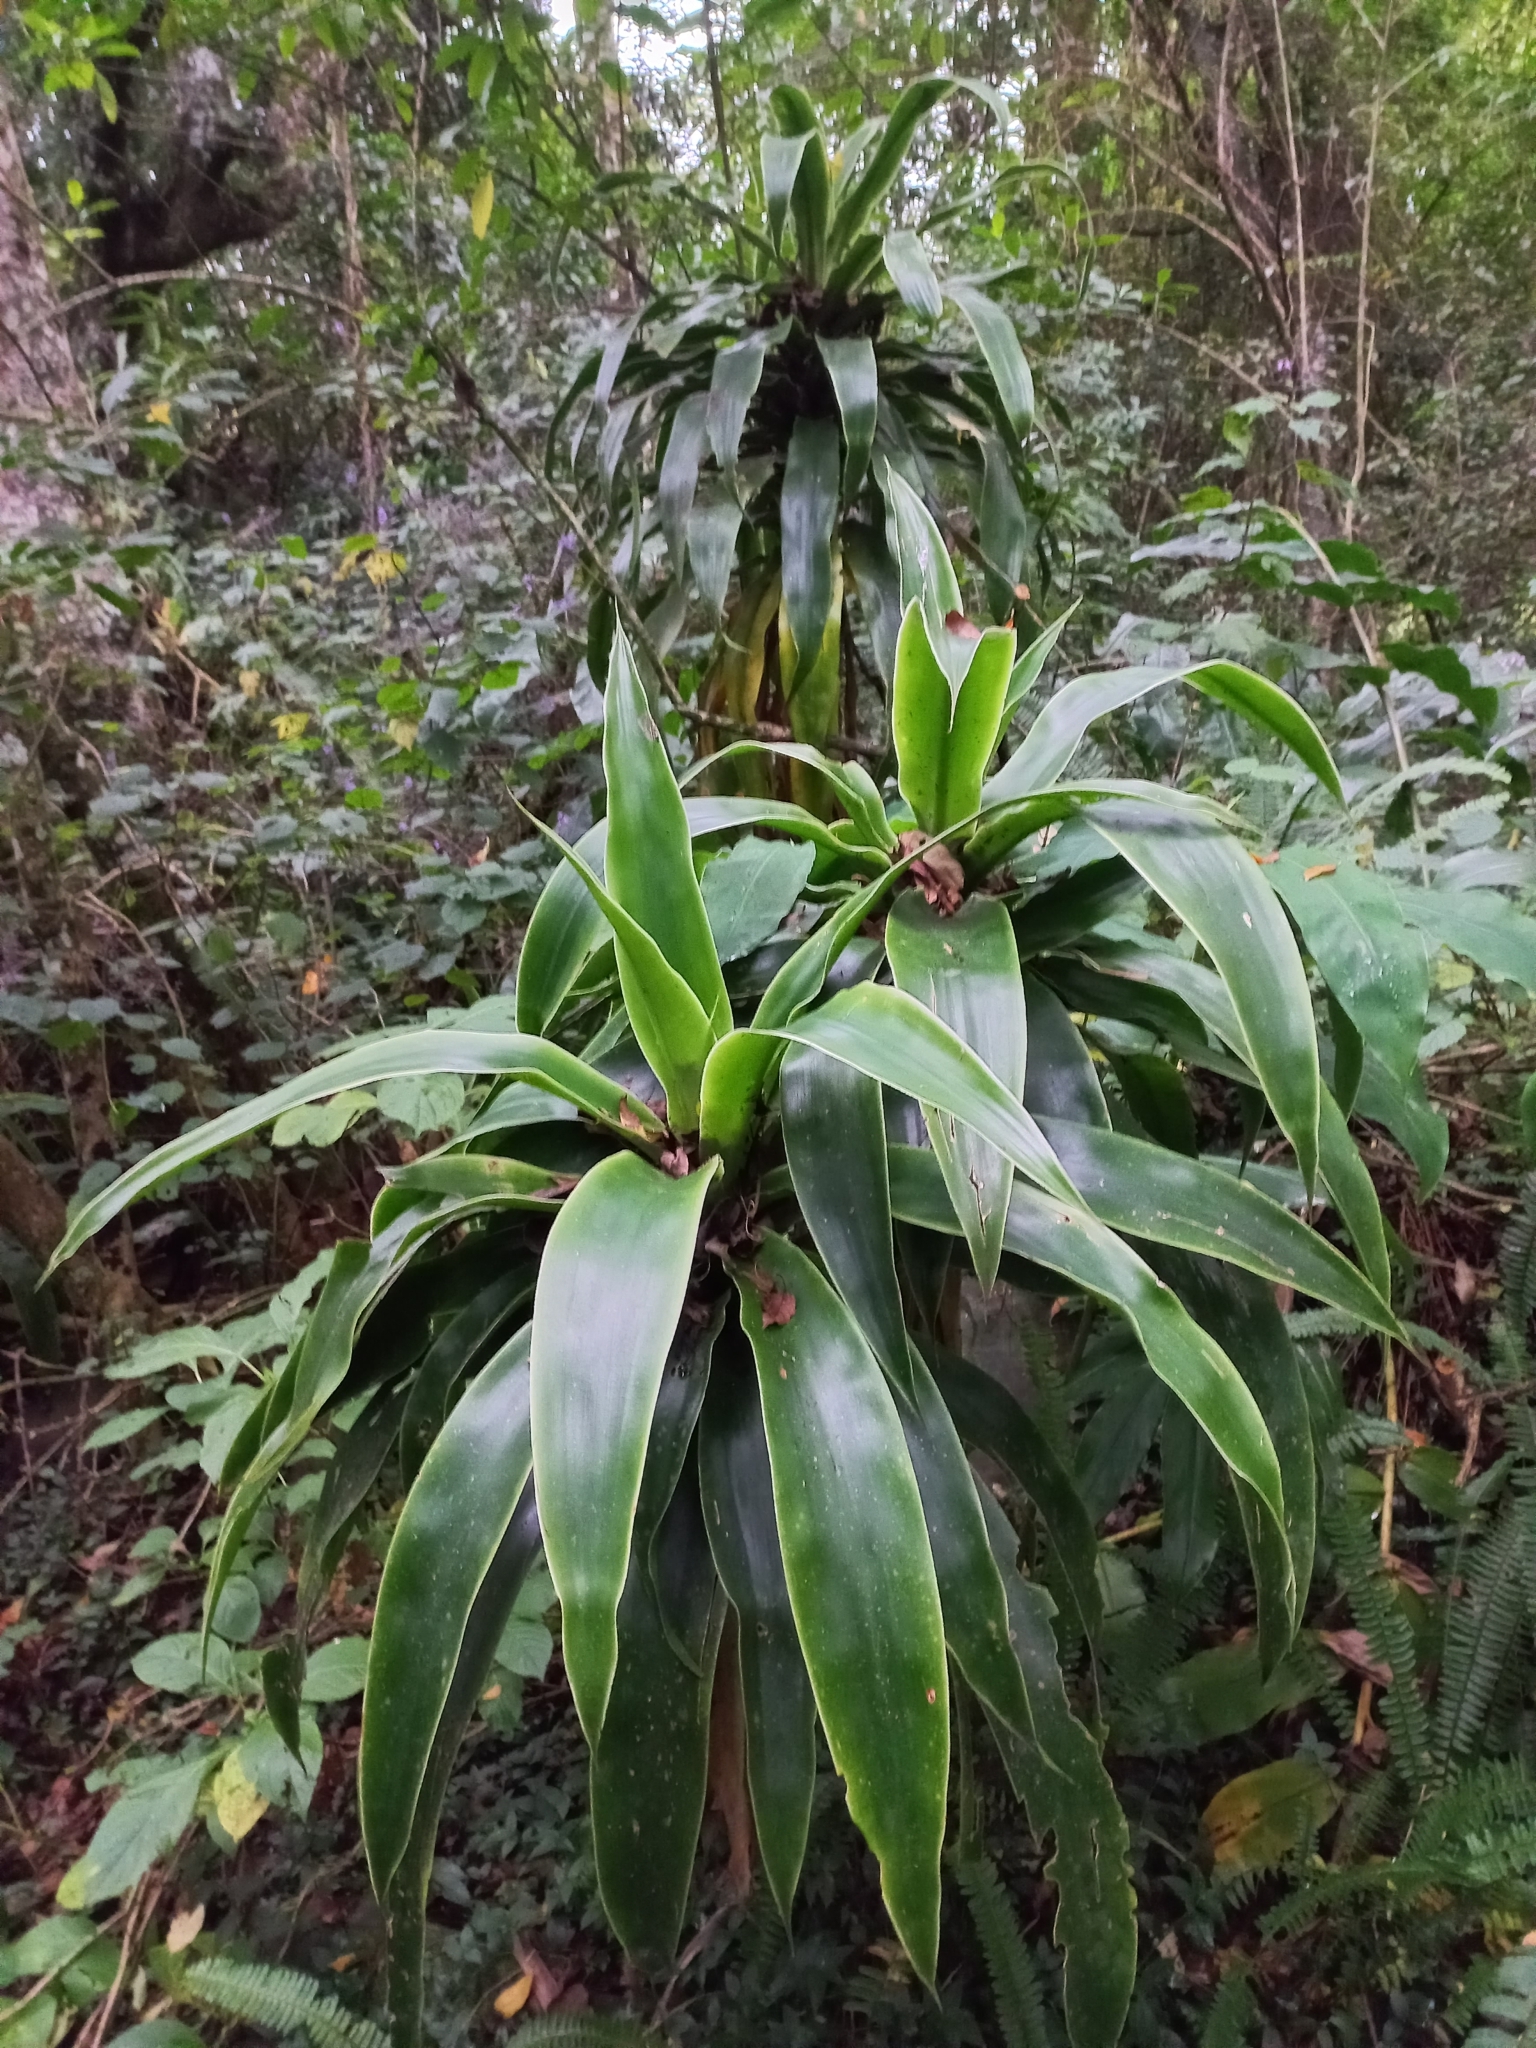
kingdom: Plantae
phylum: Tracheophyta
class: Liliopsida
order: Asparagales
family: Asparagaceae
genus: Dracaena
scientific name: Dracaena aletriformis
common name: Large-leaved dragon tree
